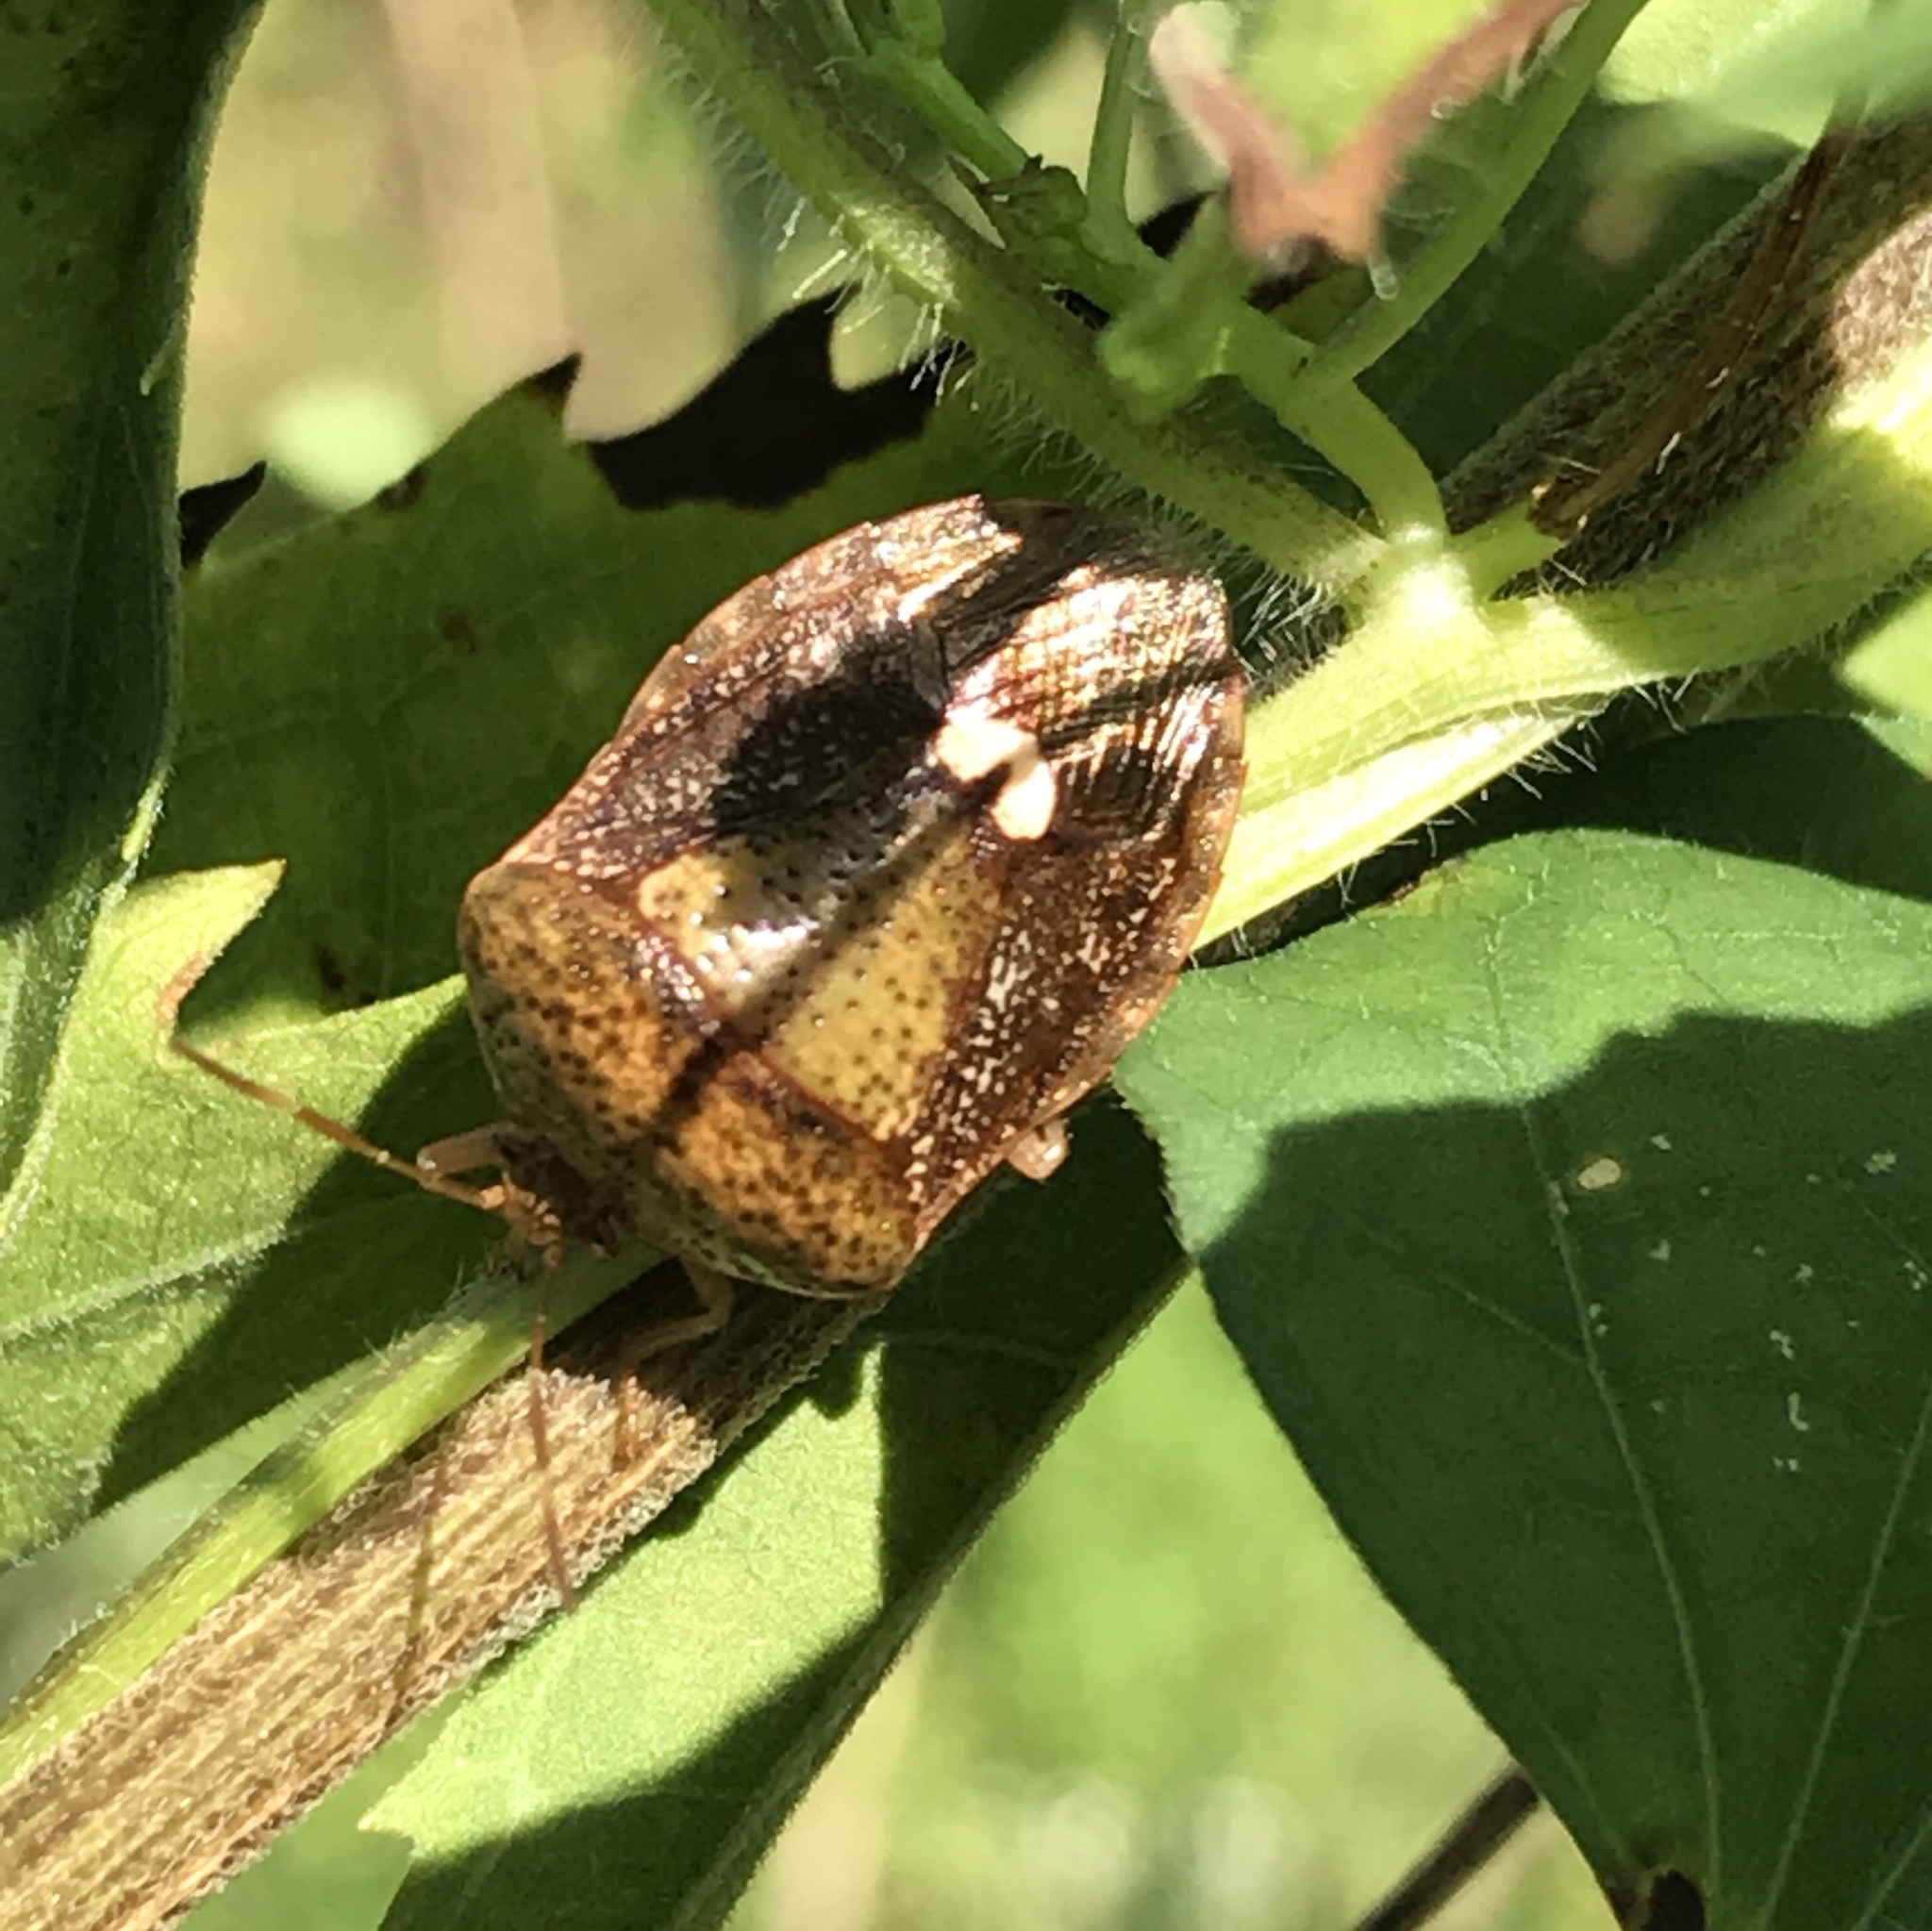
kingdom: Animalia
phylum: Arthropoda
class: Insecta
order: Hemiptera
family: Pentatomidae
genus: Edessa
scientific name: Edessa bifida
